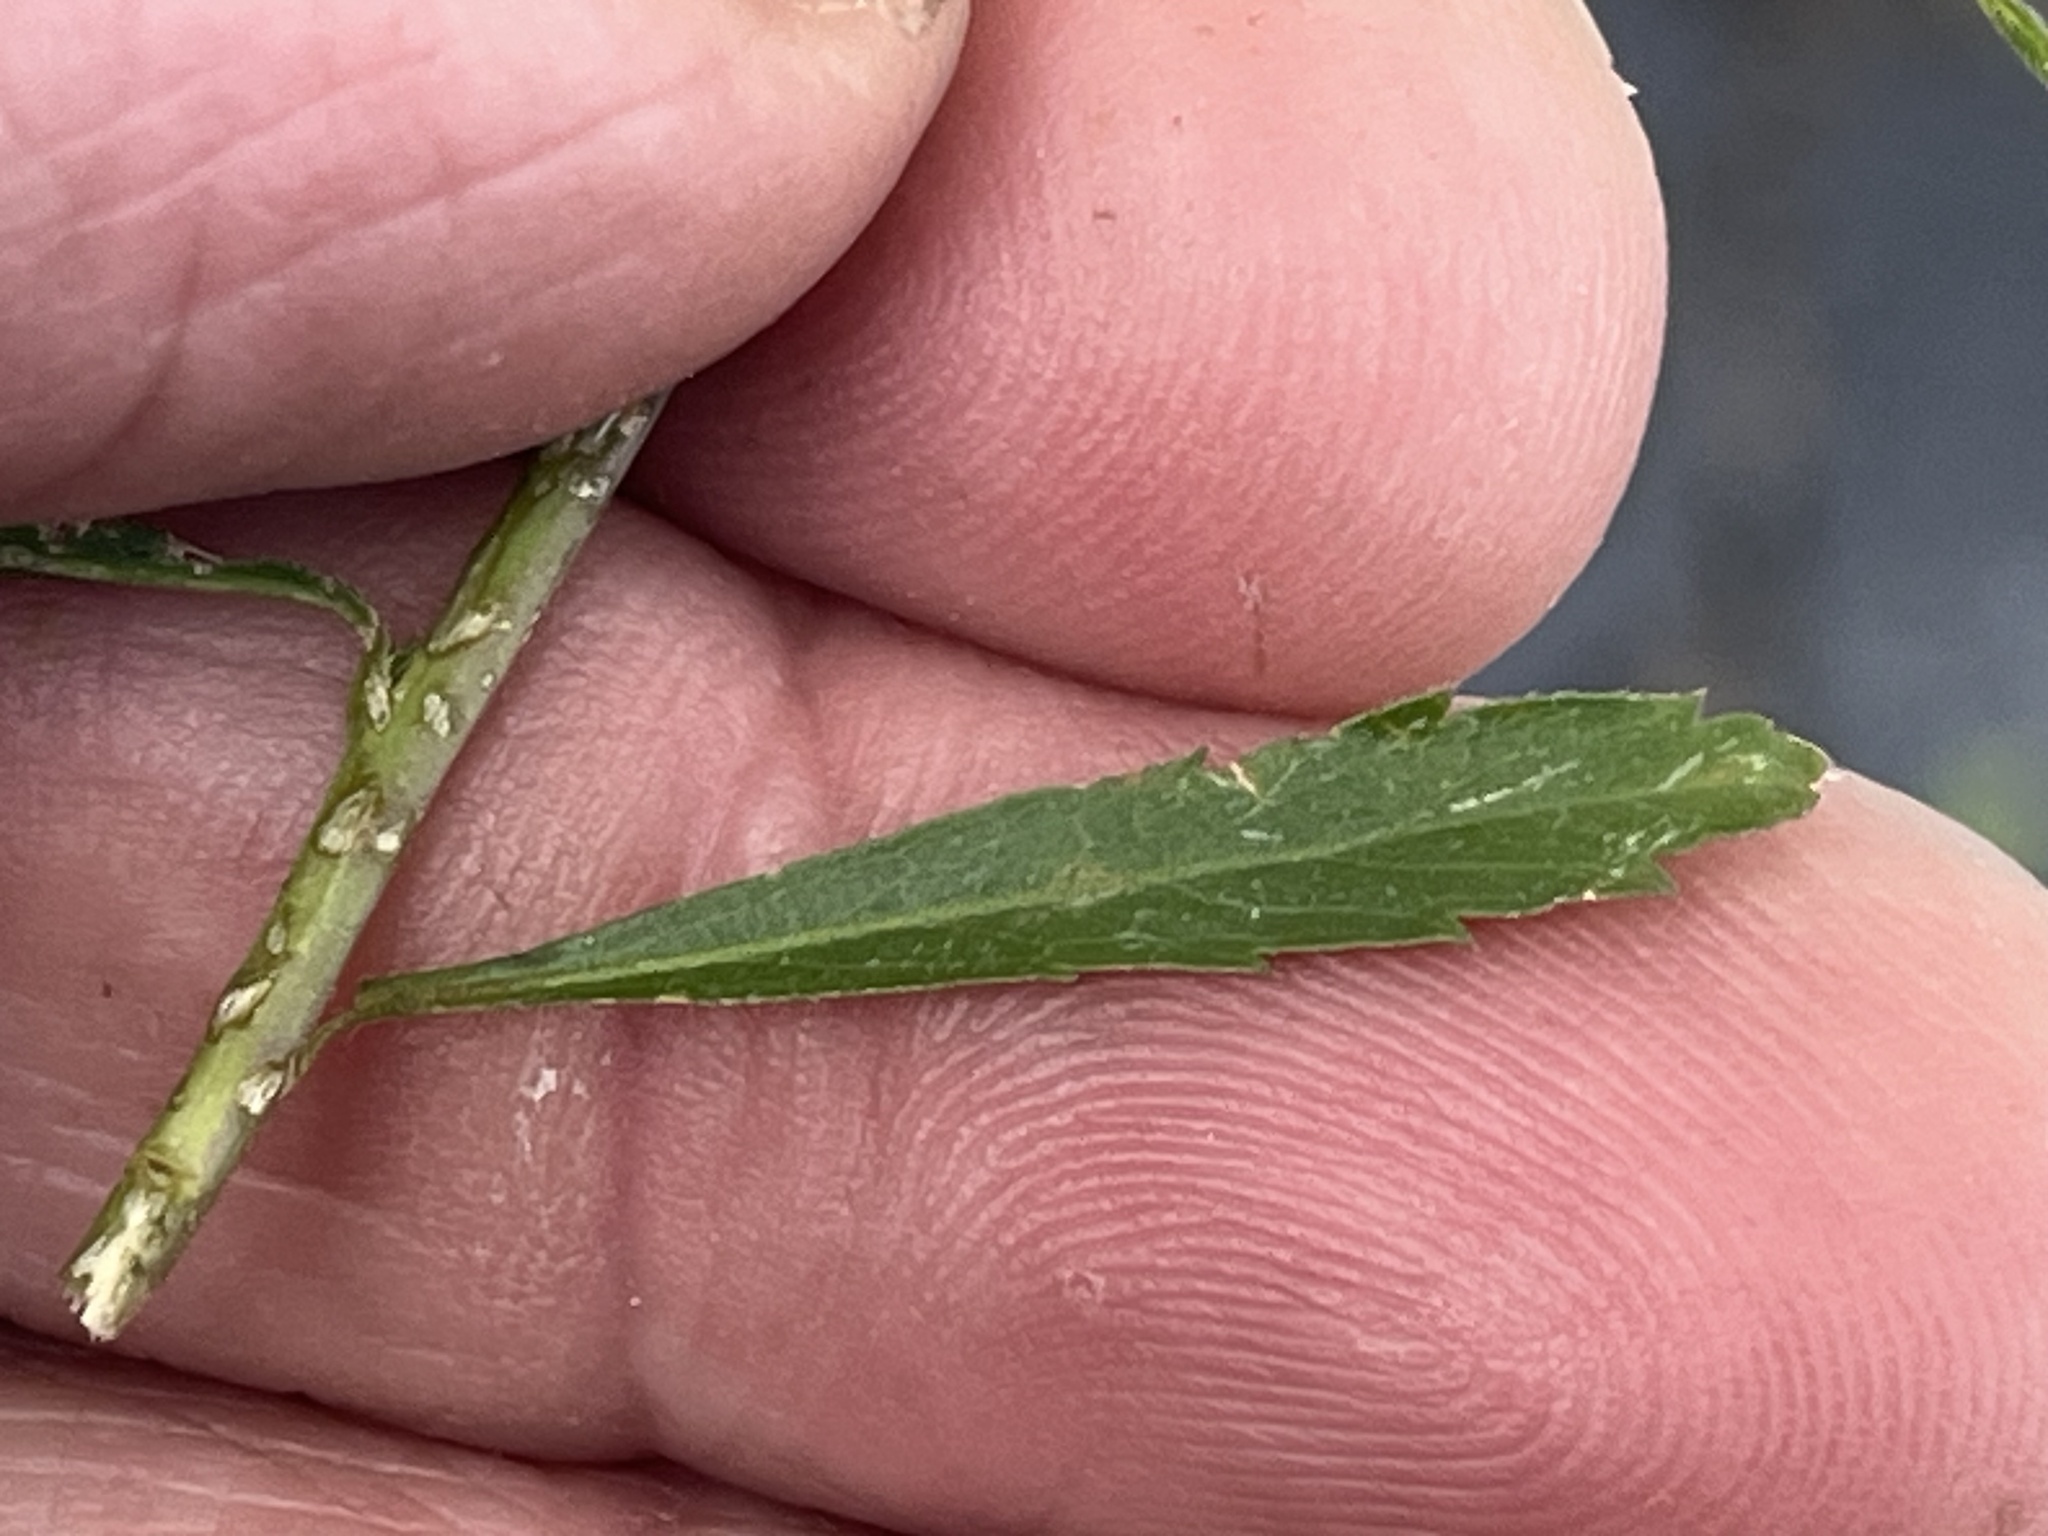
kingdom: Plantae
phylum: Tracheophyta
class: Magnoliopsida
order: Brassicales
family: Brassicaceae
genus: Lepidium
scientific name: Lepidium virginicum
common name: Least pepperwort
